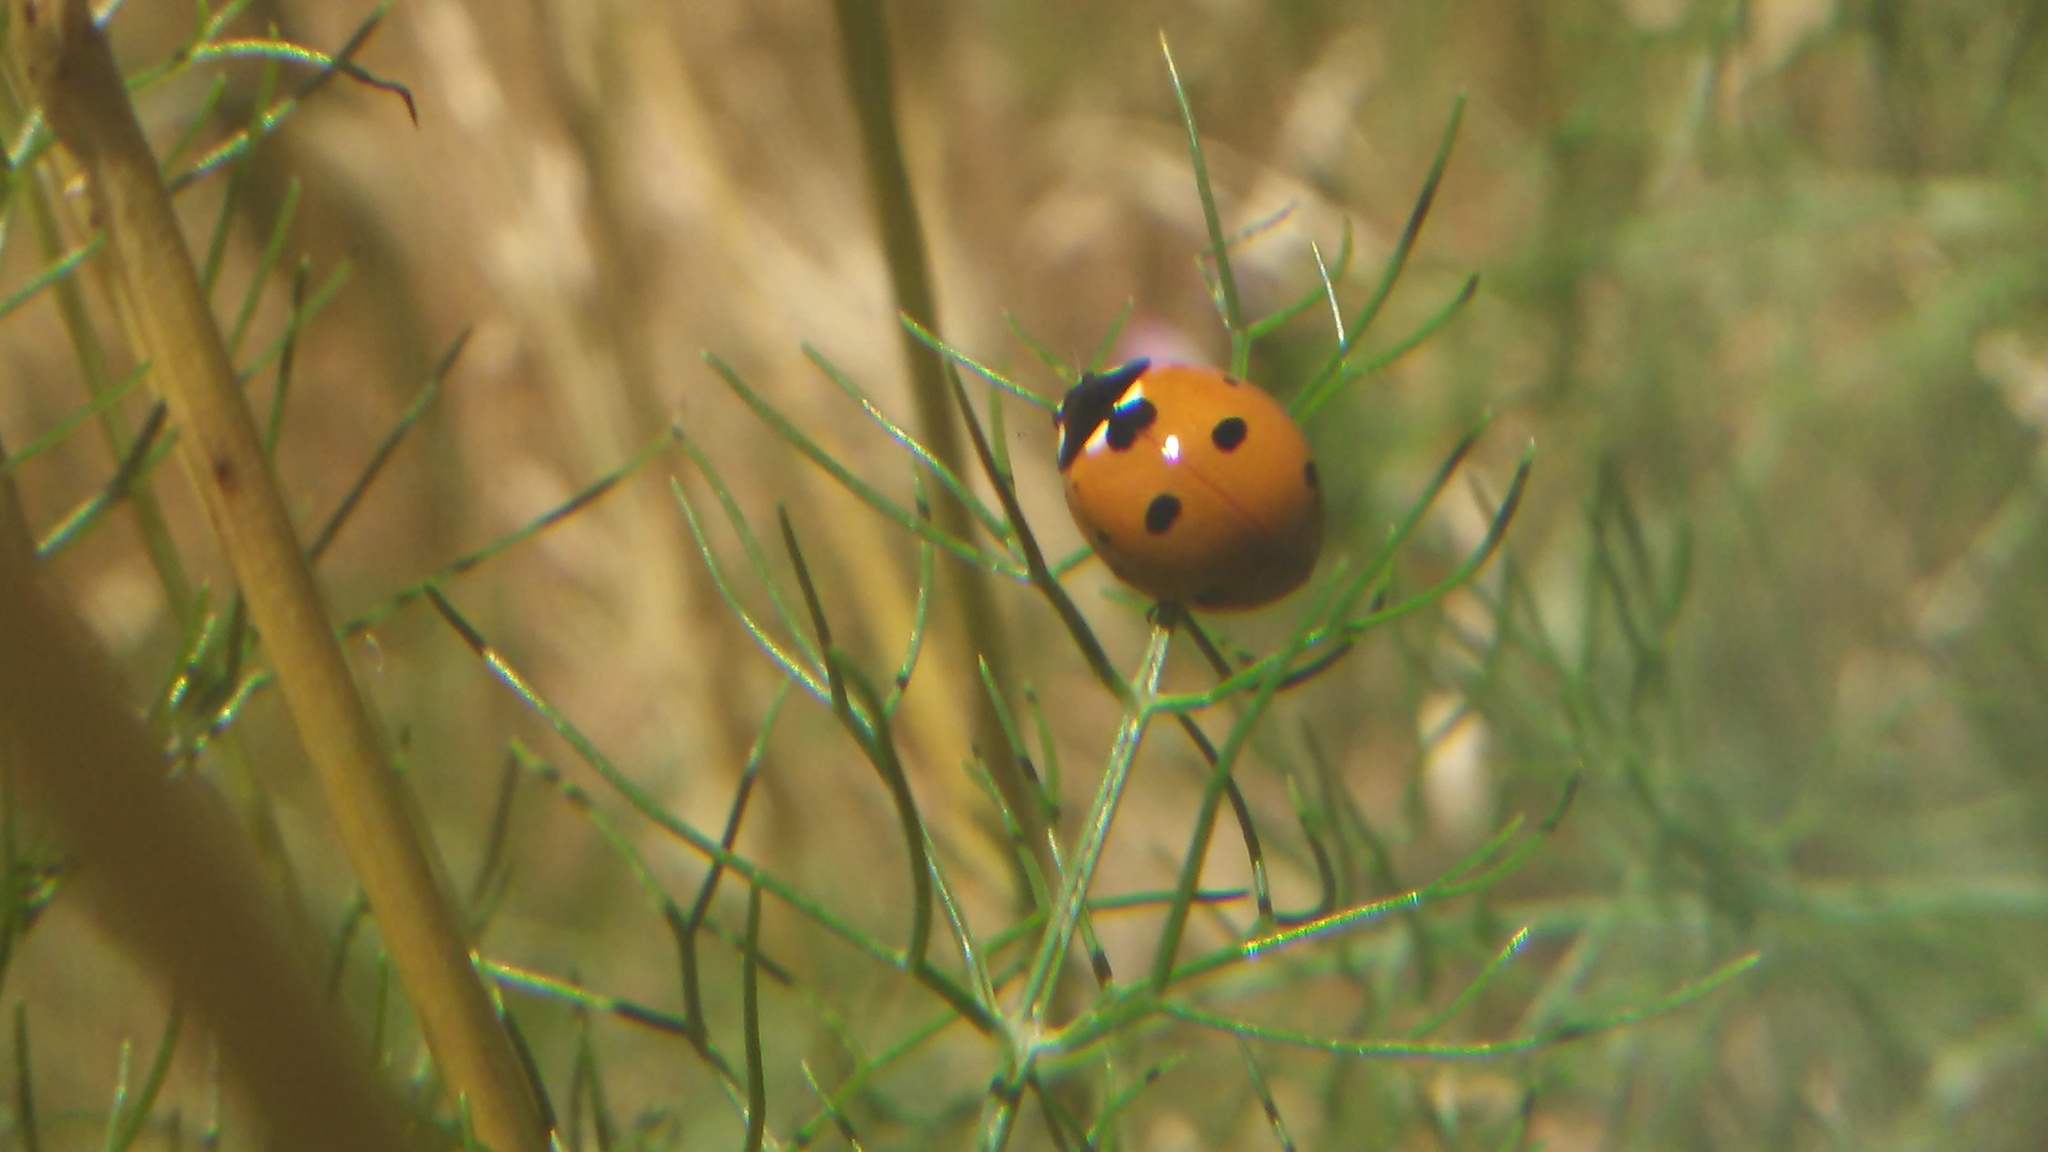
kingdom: Animalia
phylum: Arthropoda
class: Insecta
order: Coleoptera
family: Coccinellidae
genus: Coccinella
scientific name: Coccinella septempunctata
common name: Sevenspotted lady beetle
